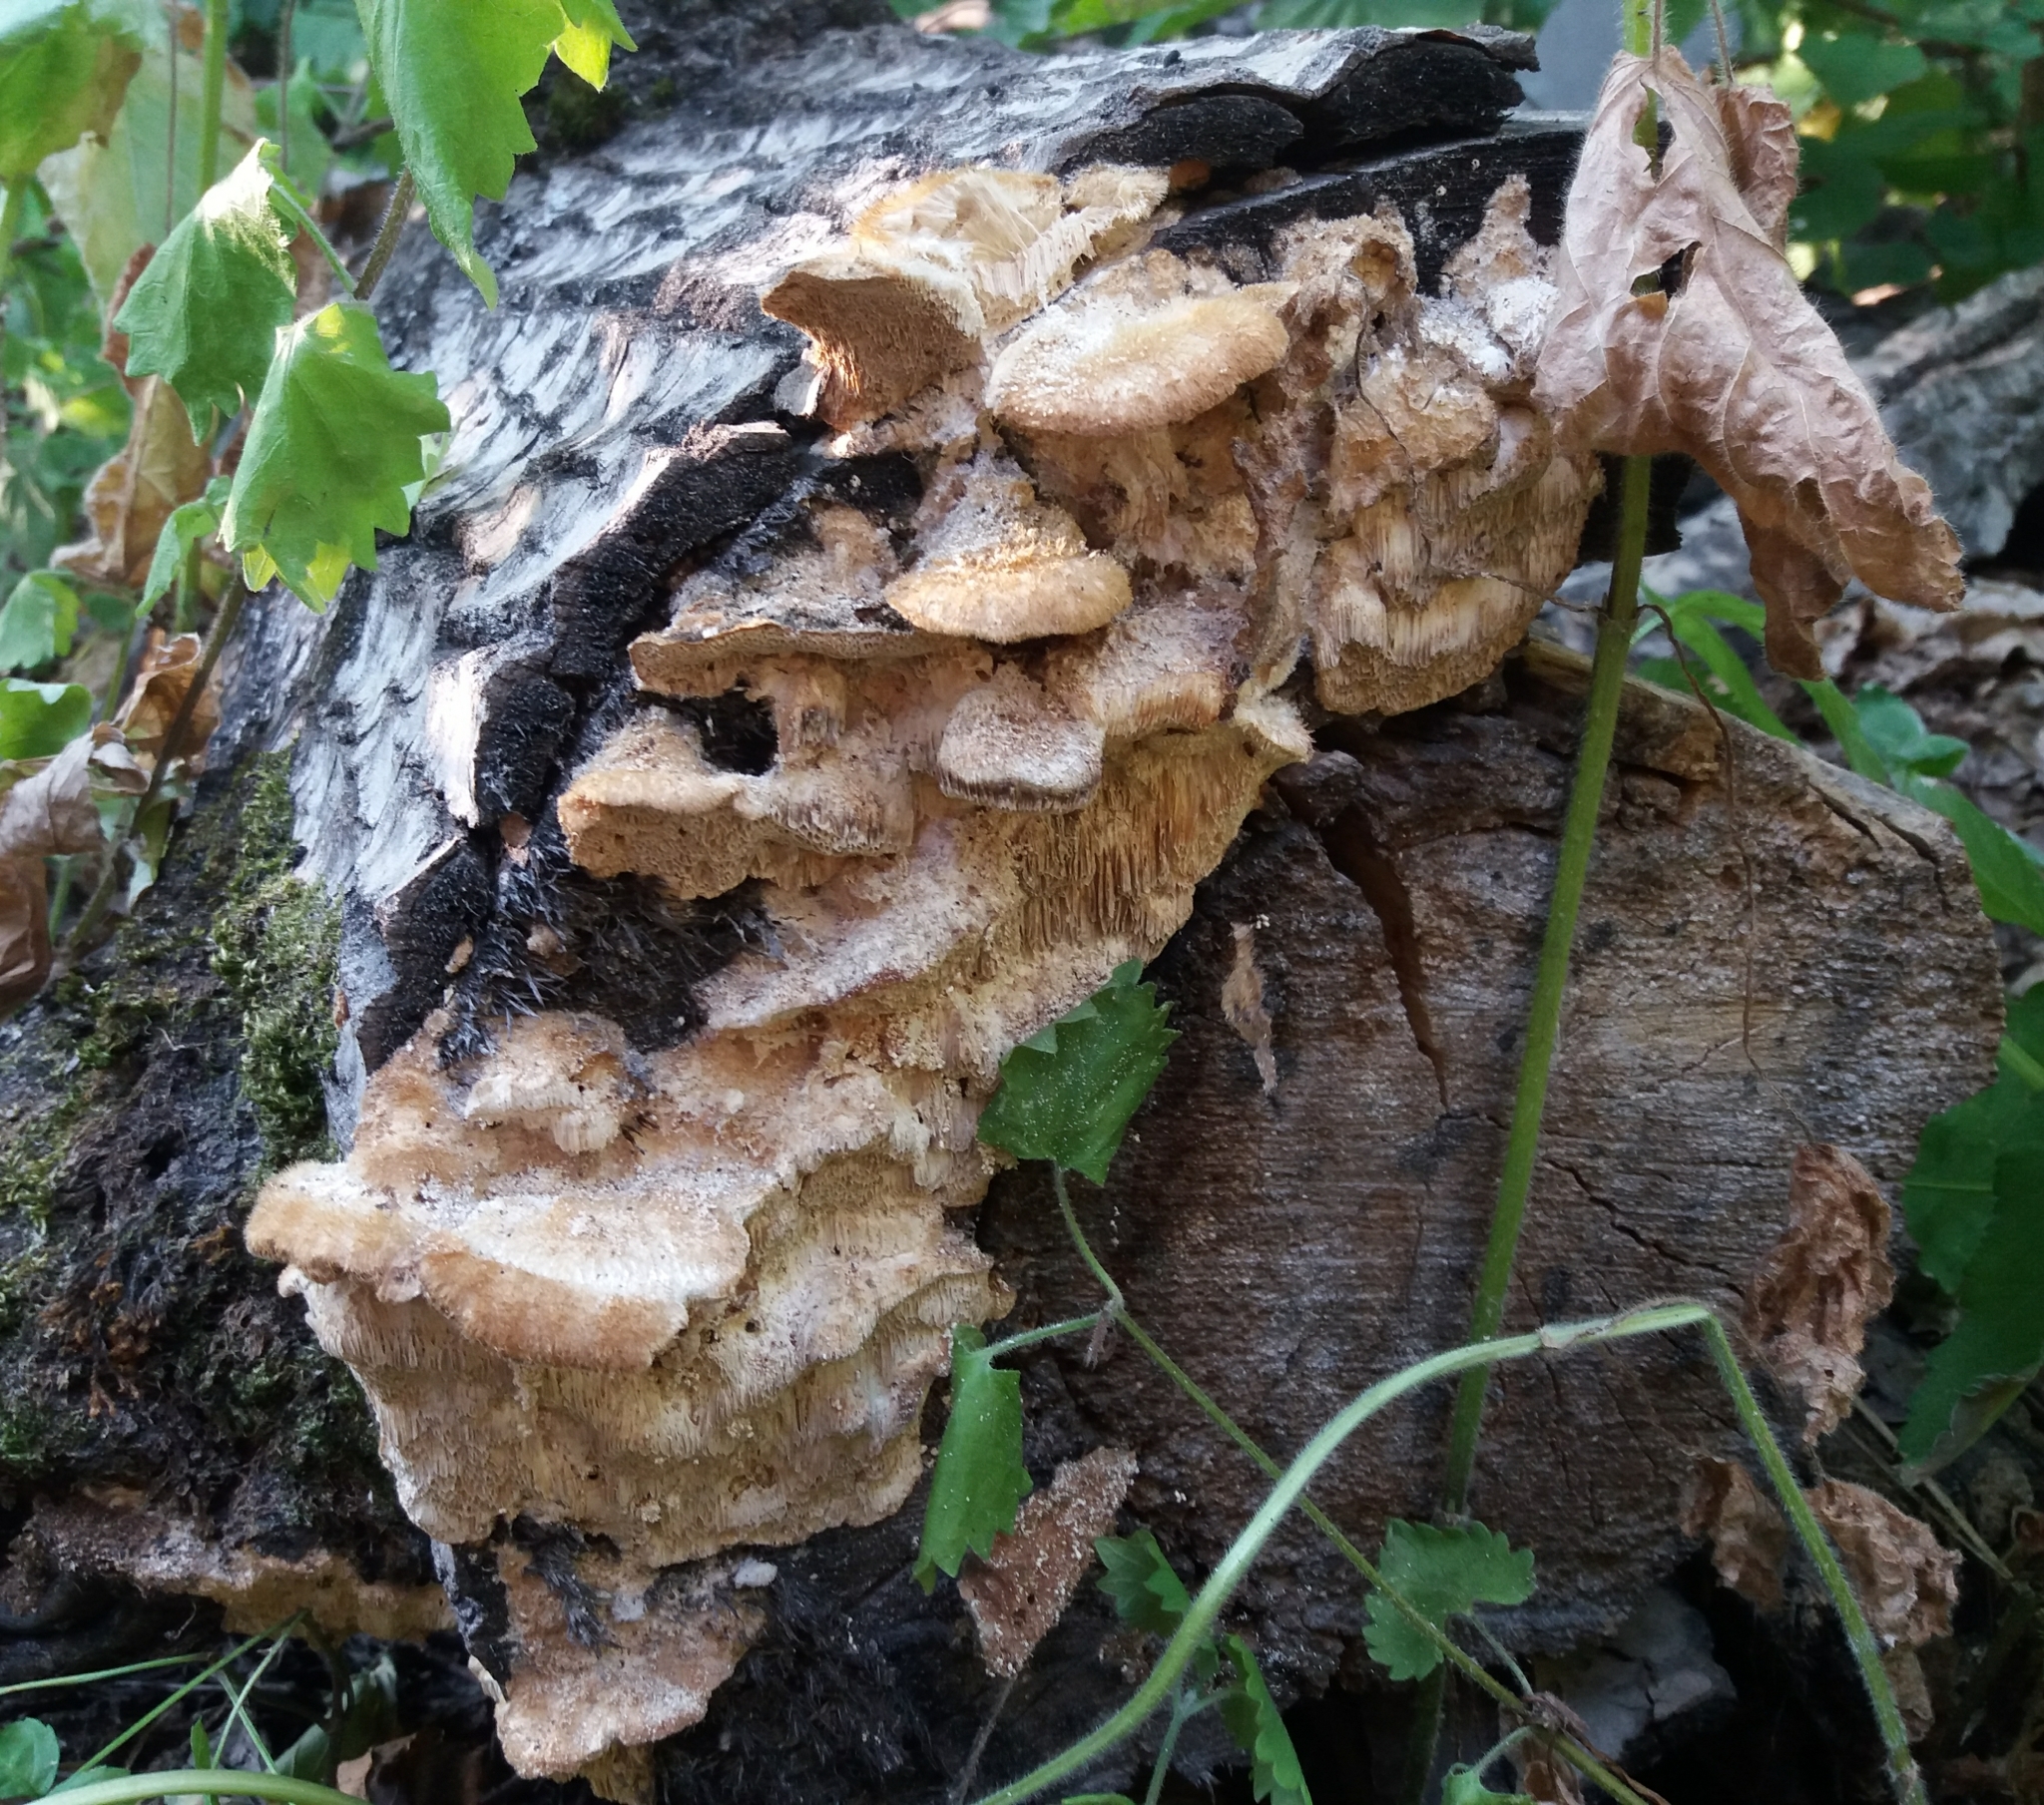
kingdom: Fungi
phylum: Basidiomycota
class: Agaricomycetes
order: Polyporales
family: Polyporaceae
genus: Trametes
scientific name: Trametes ochracea
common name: Ochre bracket
